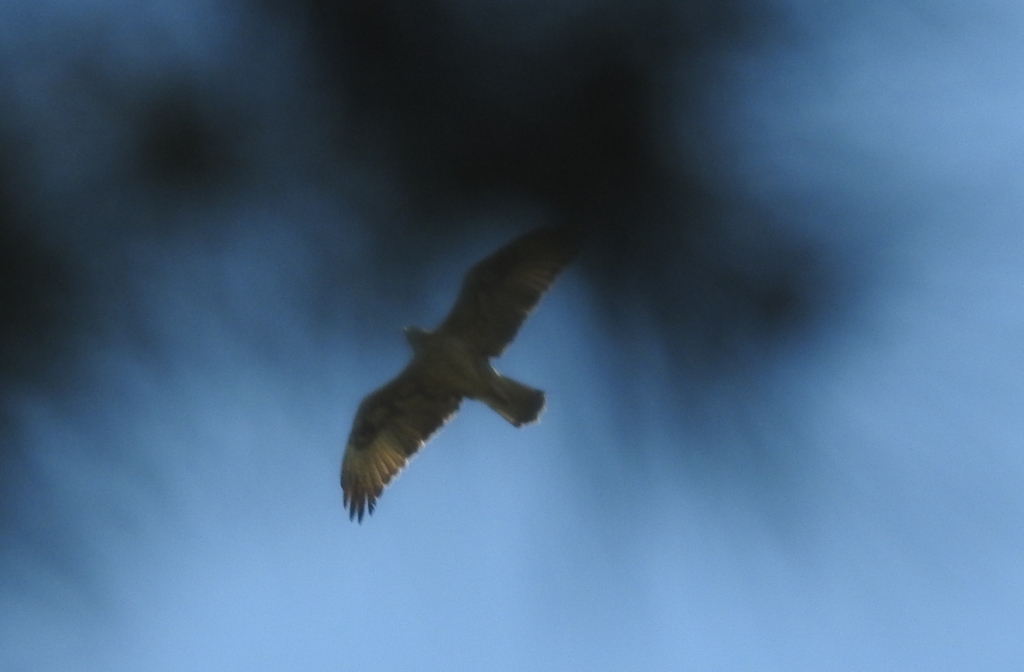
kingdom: Animalia
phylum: Chordata
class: Aves
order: Accipitriformes
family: Accipitridae
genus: Aquila
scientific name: Aquila fasciata
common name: Bonelli's eagle
